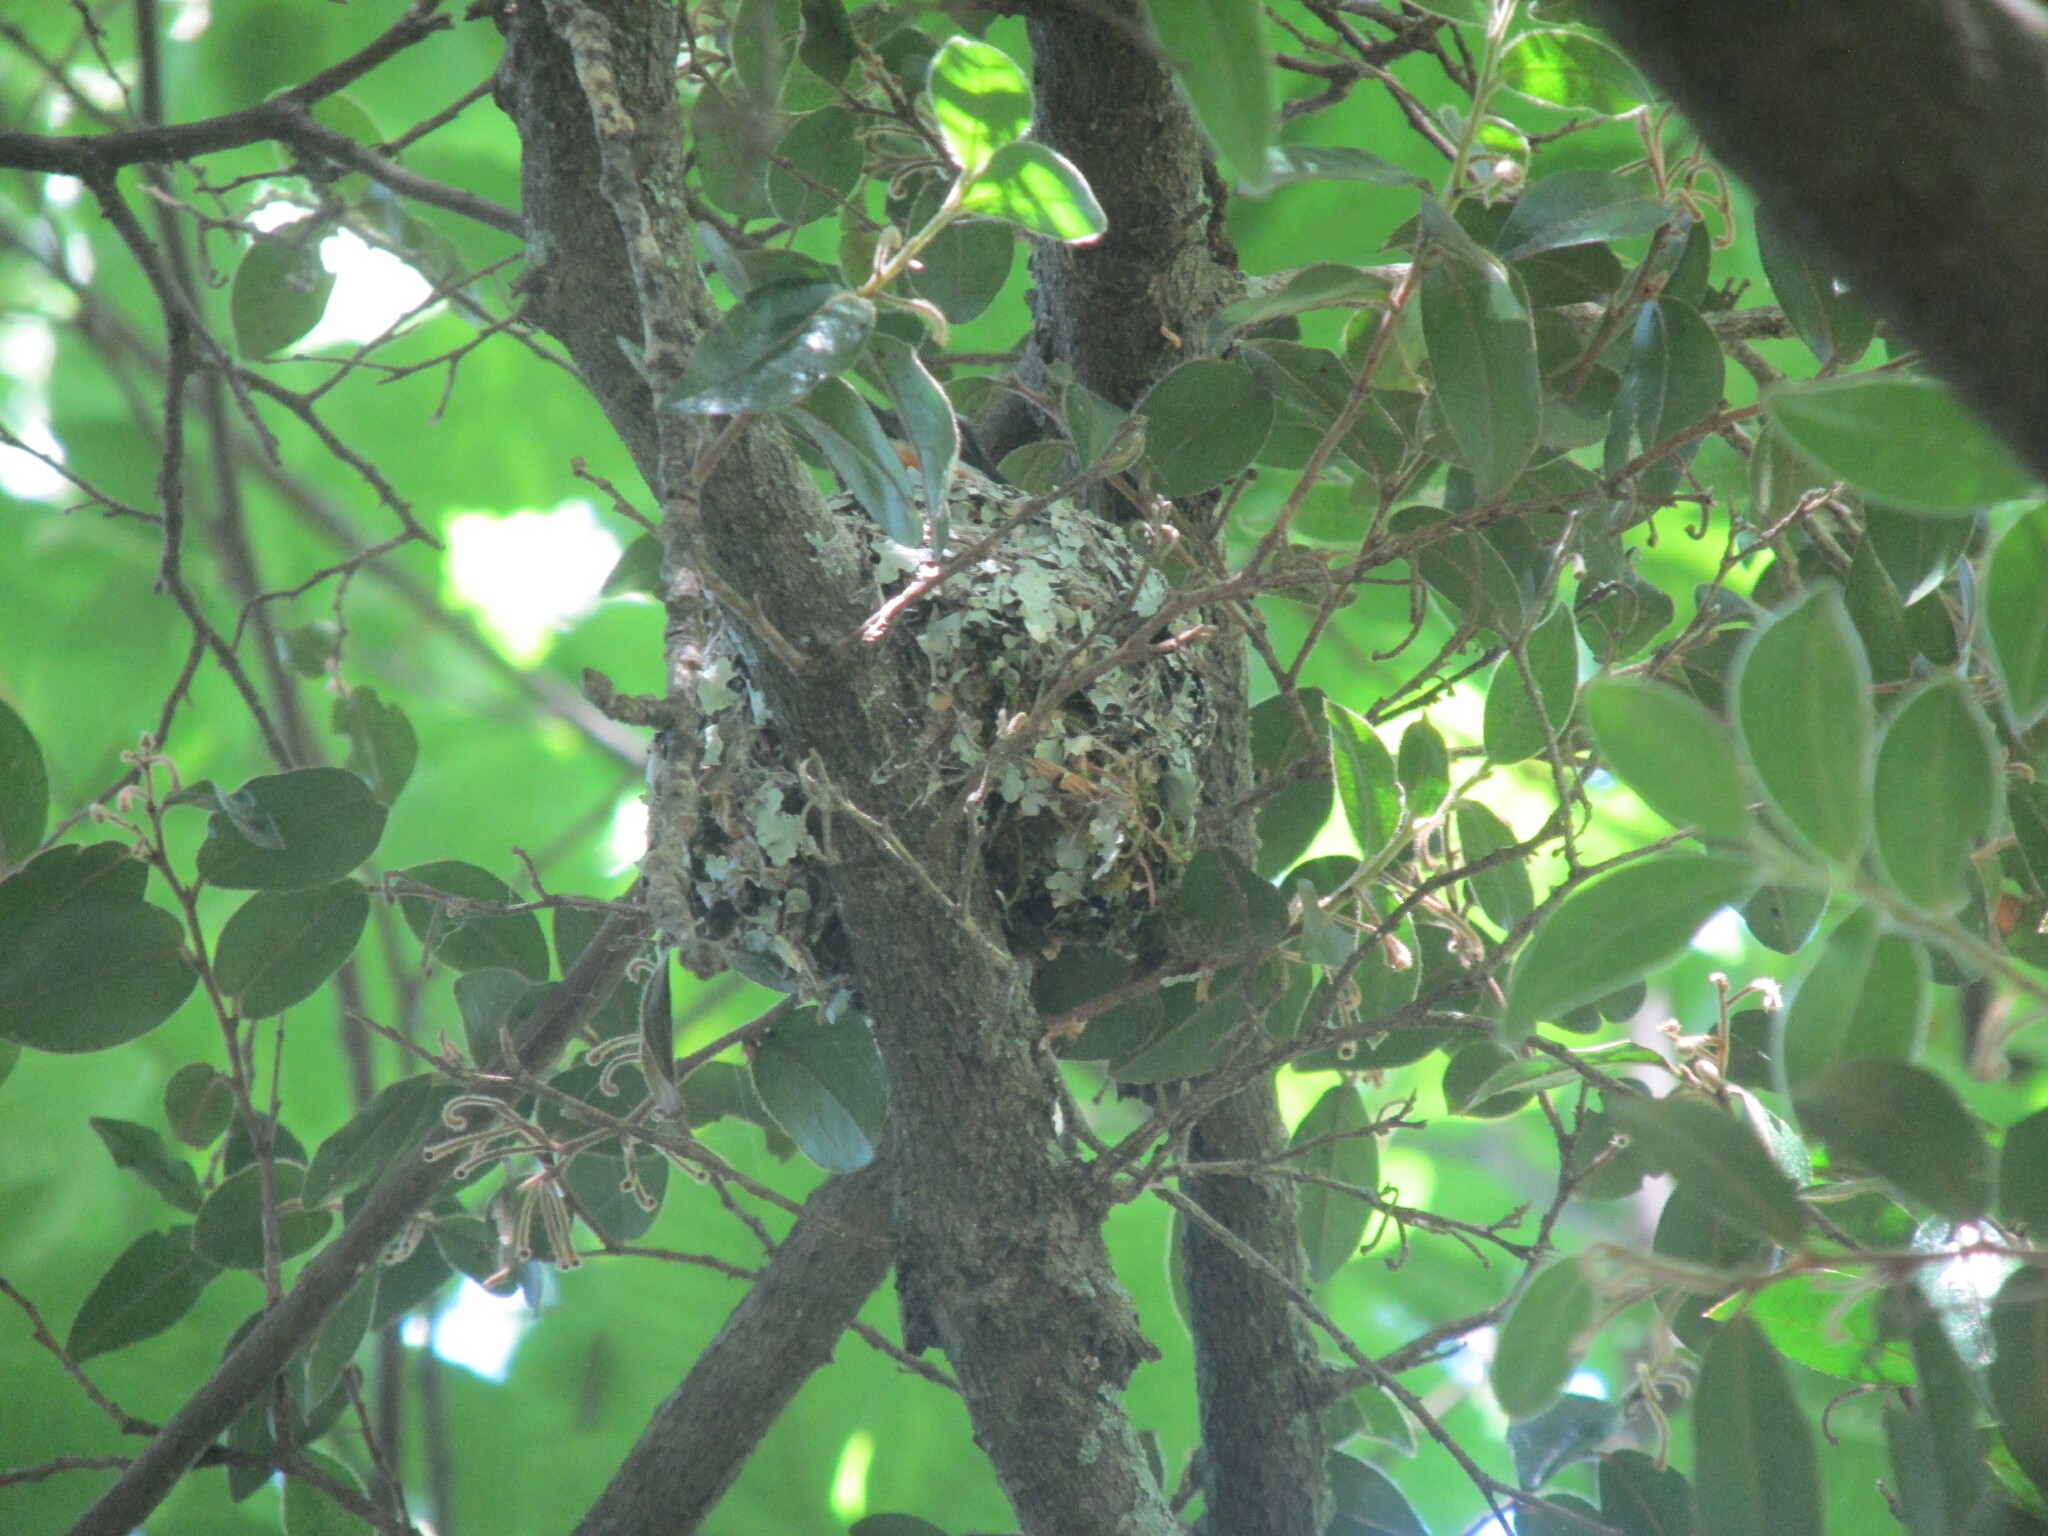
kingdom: Animalia
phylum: Chordata
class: Aves
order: Passeriformes
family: Platysteiridae
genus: Batis
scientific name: Batis capensis
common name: Cape batis
